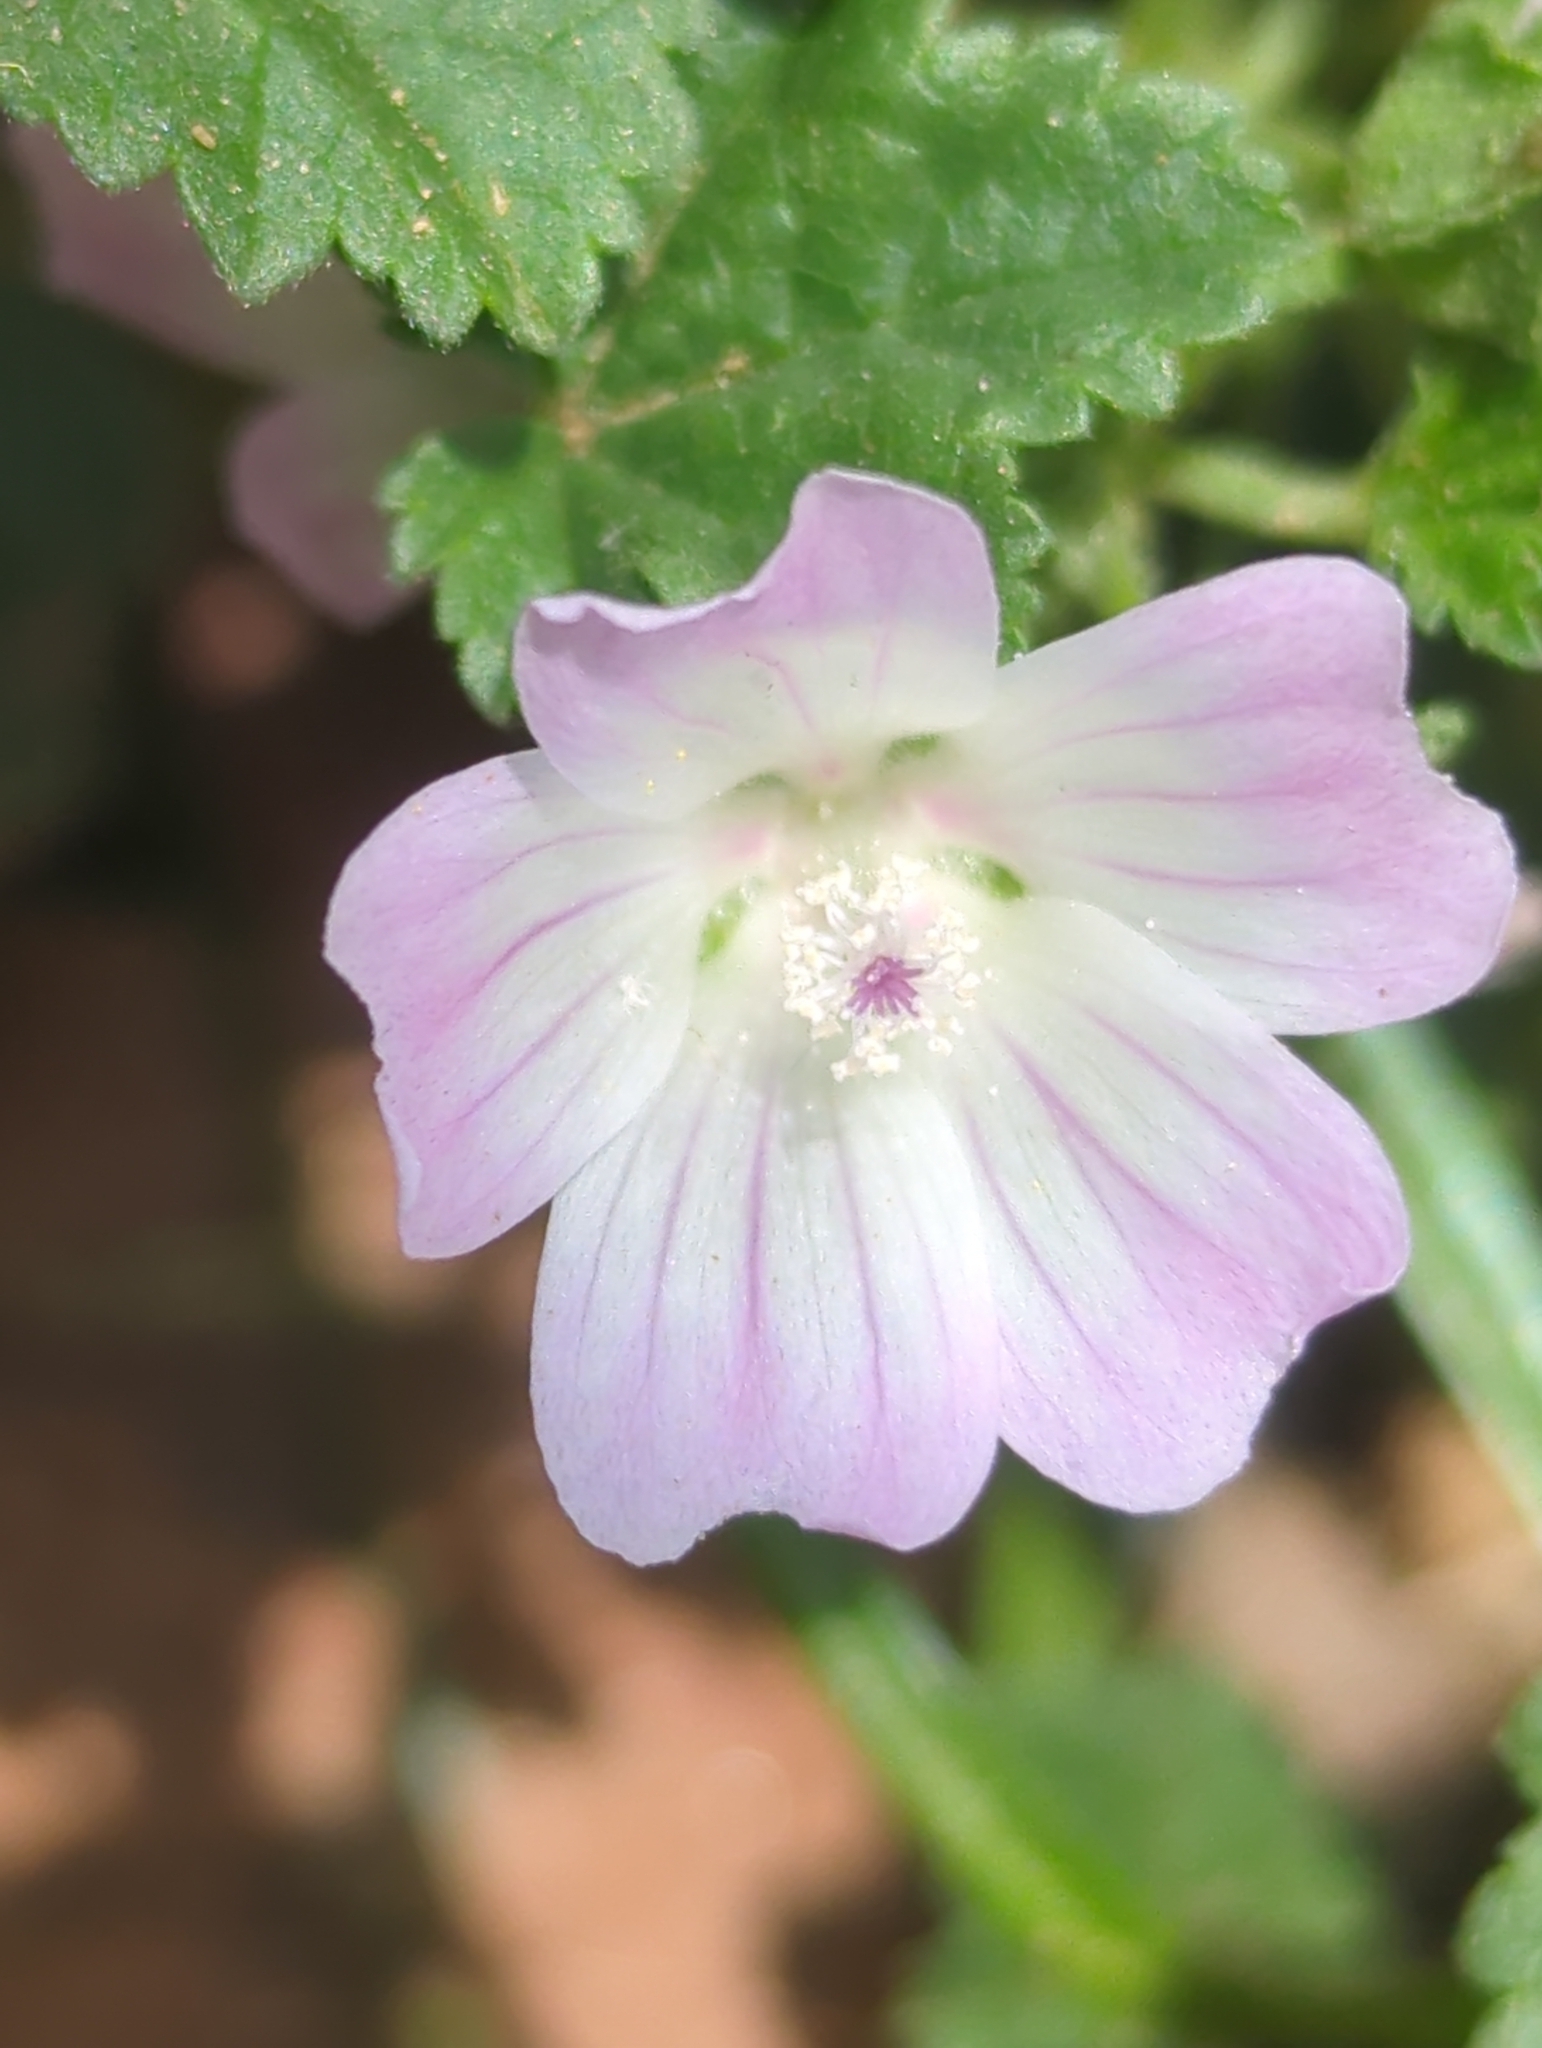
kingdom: Plantae
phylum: Tracheophyta
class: Magnoliopsida
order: Malvales
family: Malvaceae
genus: Malva
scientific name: Malva neglecta
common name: Common mallow
